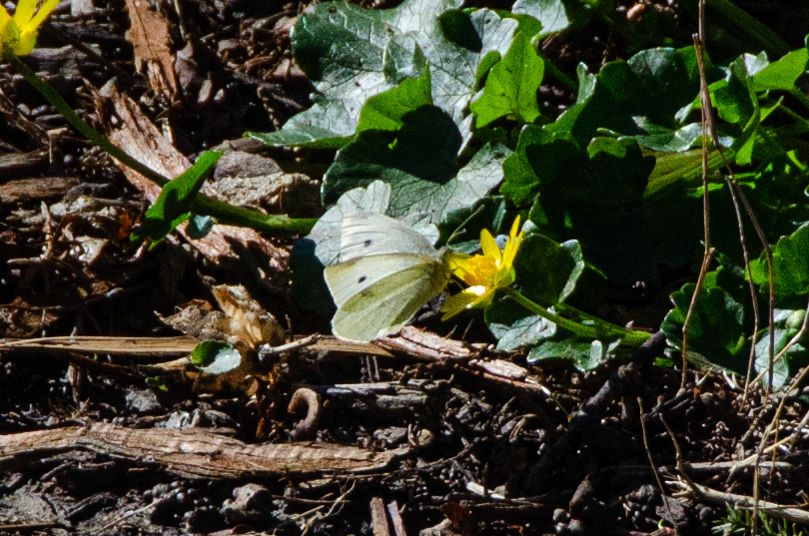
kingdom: Animalia
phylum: Arthropoda
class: Insecta
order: Lepidoptera
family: Pieridae
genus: Pieris
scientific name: Pieris rapae
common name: Small white
